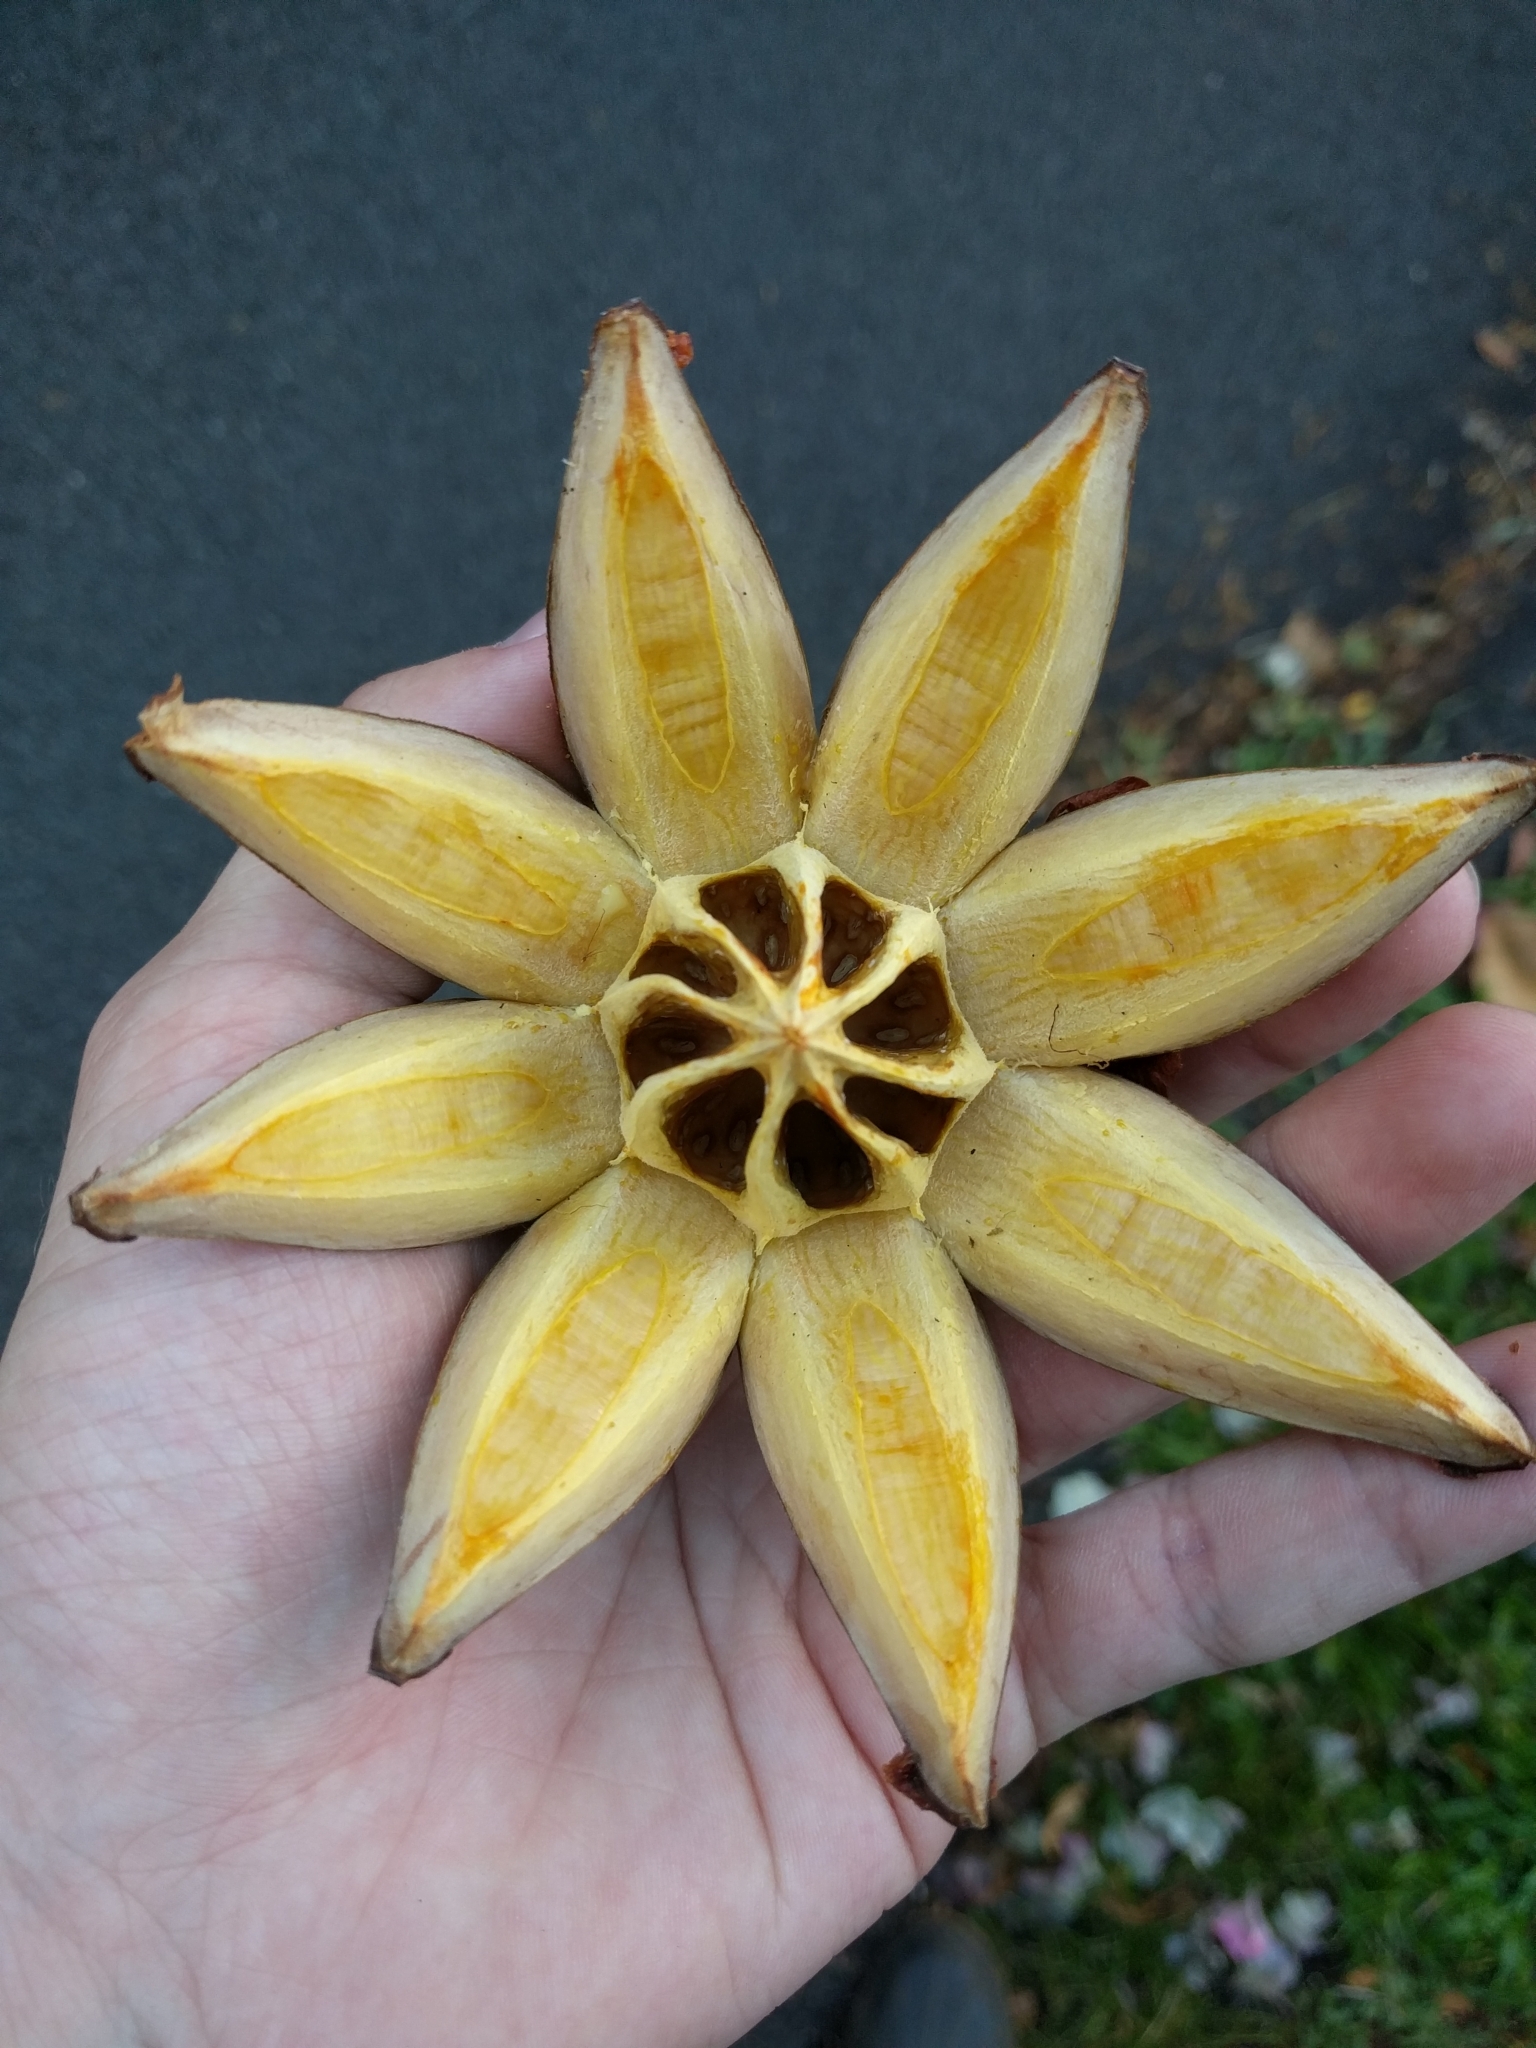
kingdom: Plantae
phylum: Tracheophyta
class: Magnoliopsida
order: Malpighiales
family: Clusiaceae
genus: Clusia
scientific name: Clusia rosea
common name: Scotch attorney
